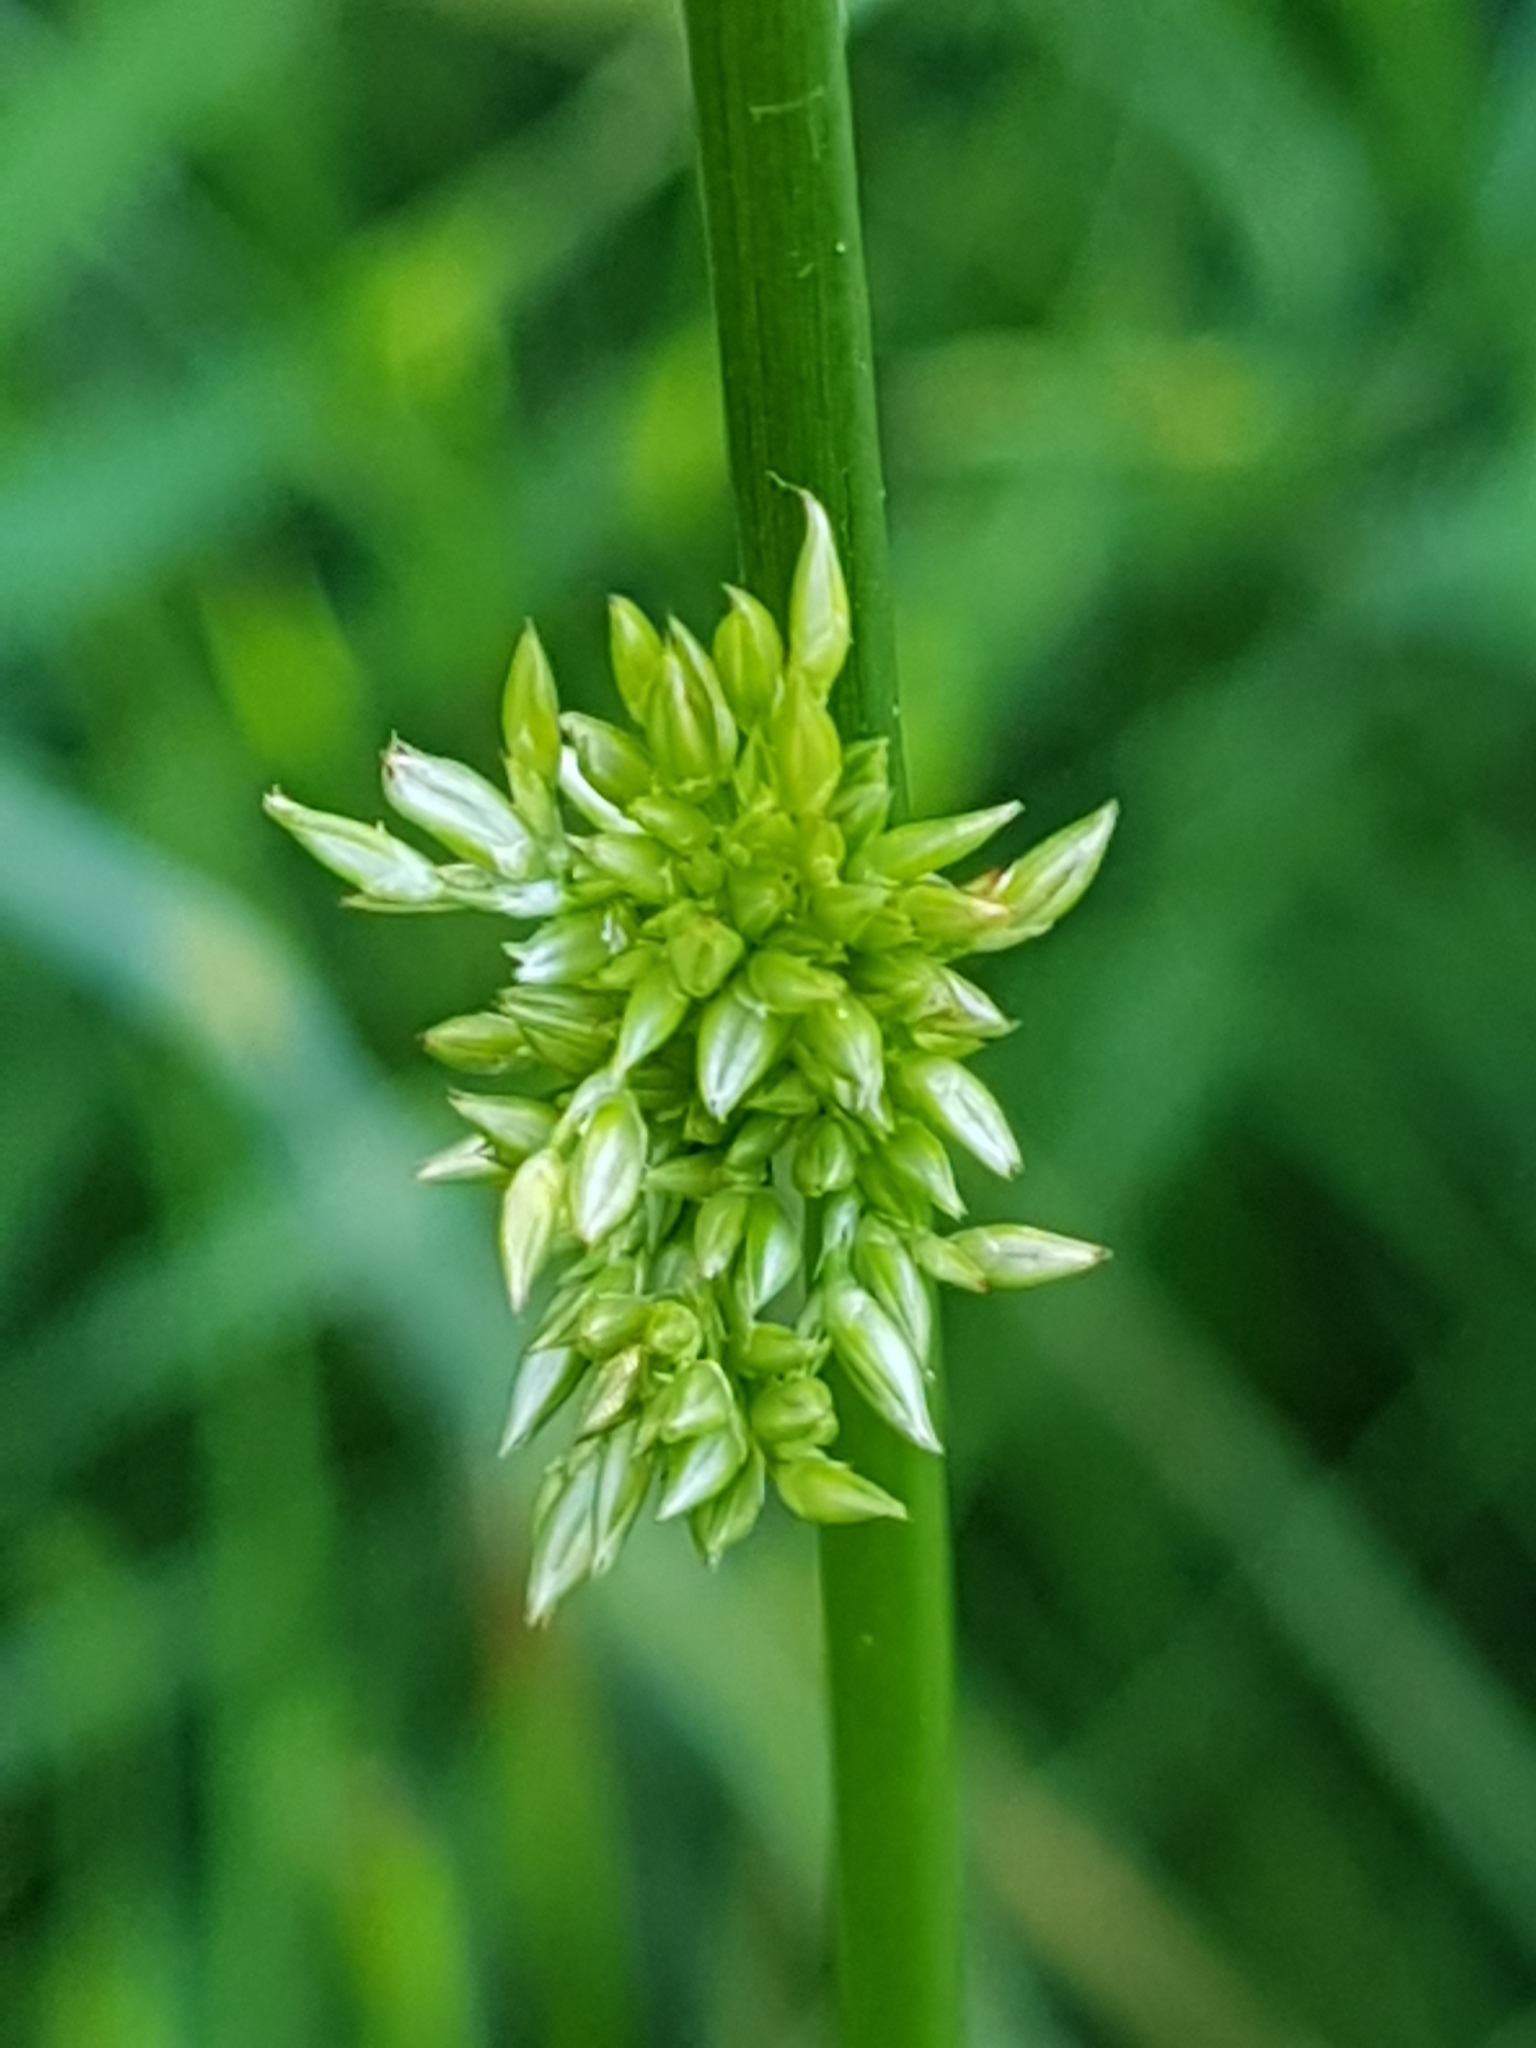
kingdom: Plantae
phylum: Tracheophyta
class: Liliopsida
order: Poales
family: Juncaceae
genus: Juncus
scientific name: Juncus effusus
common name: Soft rush
